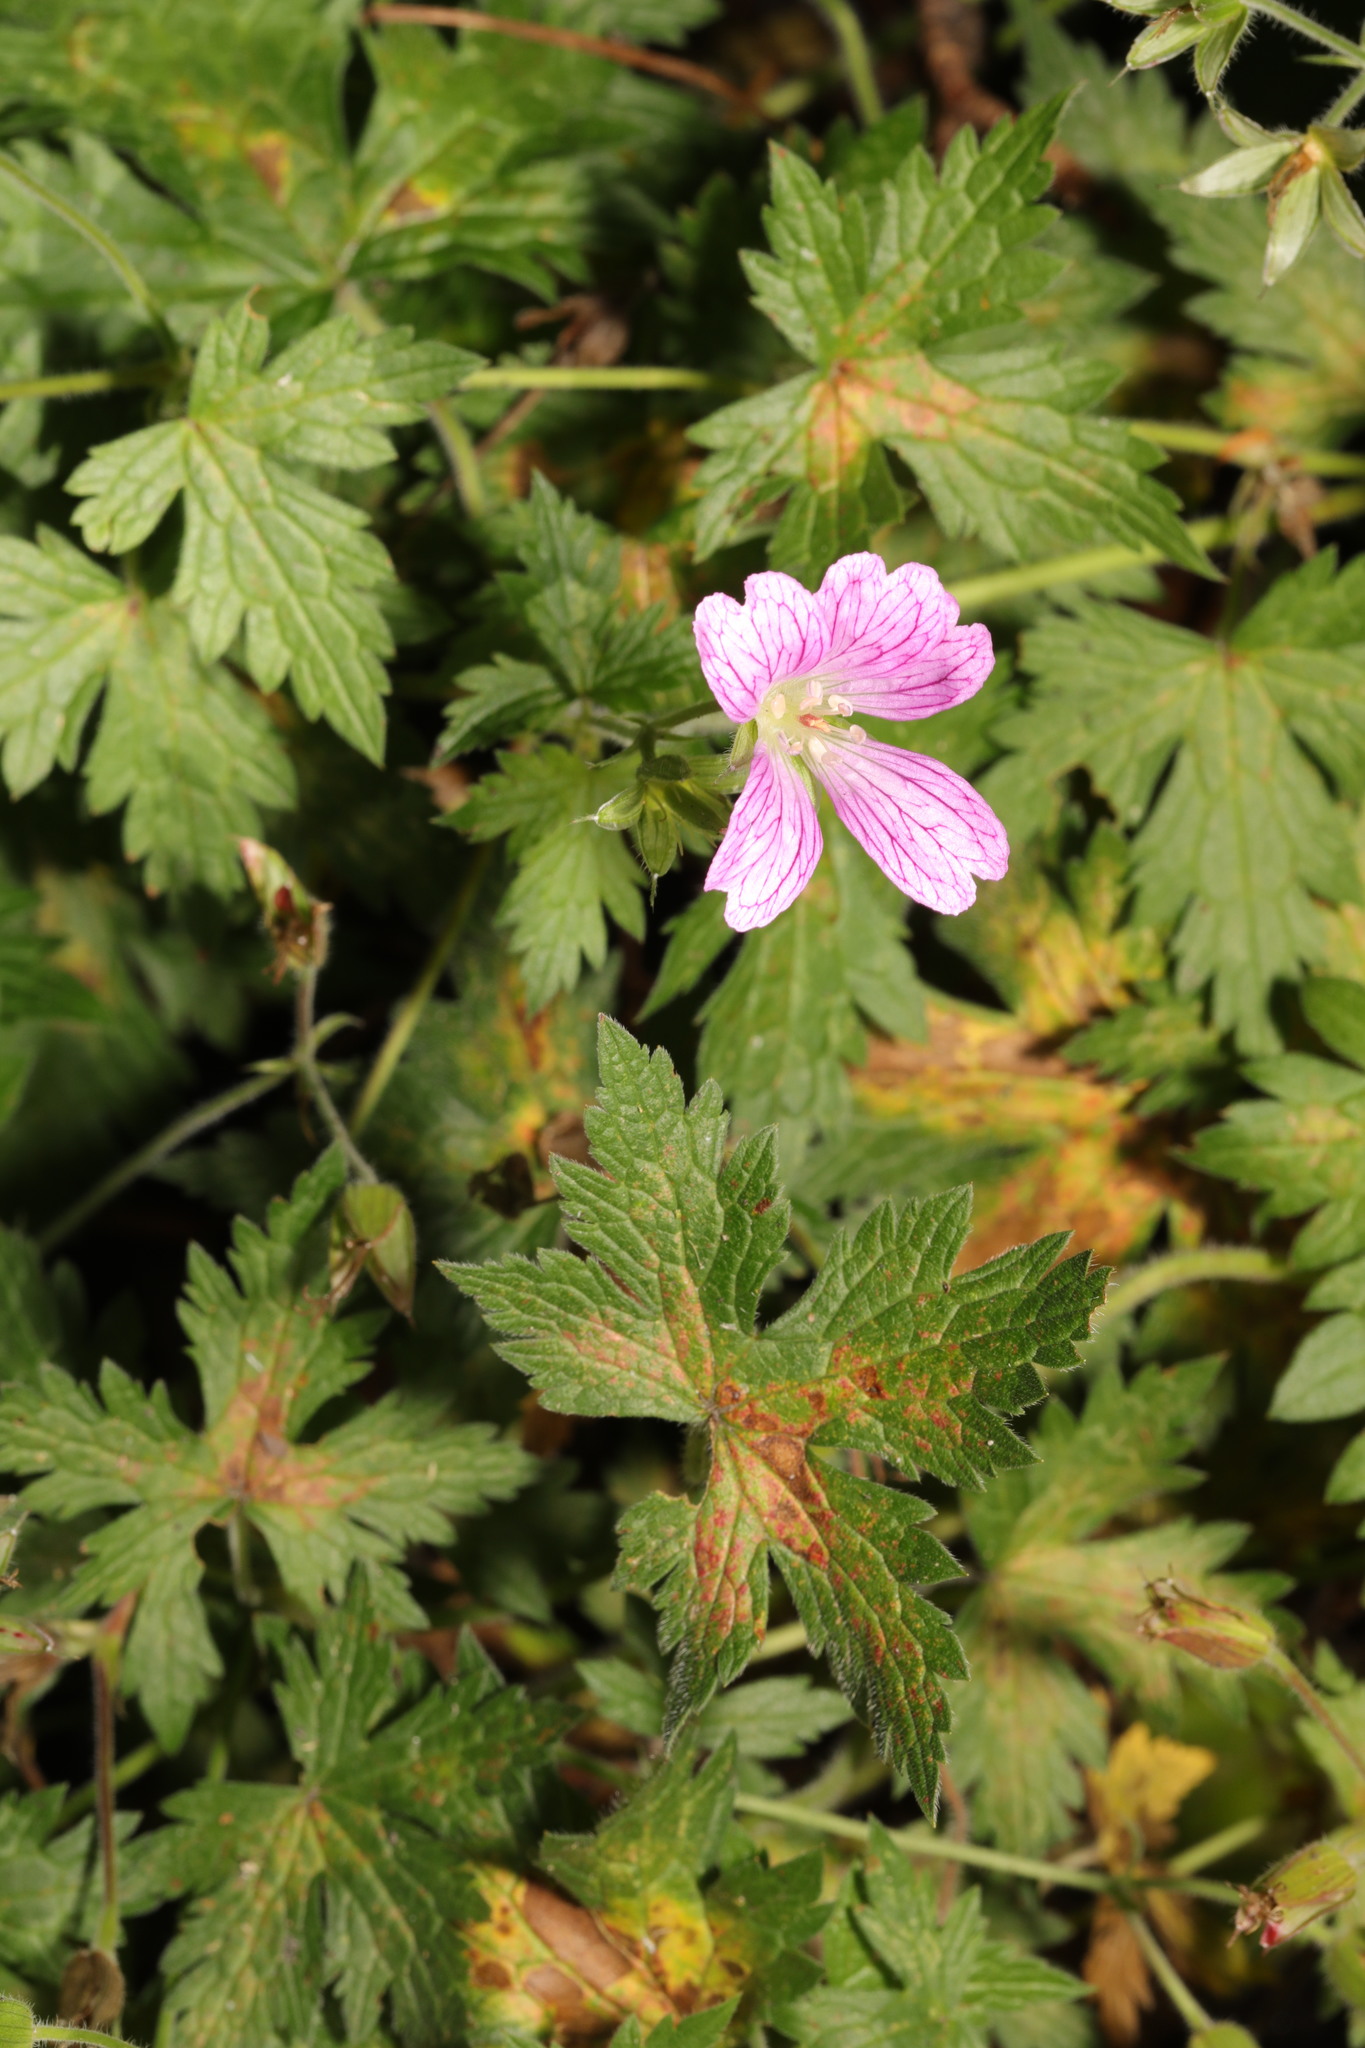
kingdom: Plantae
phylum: Tracheophyta
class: Magnoliopsida
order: Geraniales
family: Geraniaceae
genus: Geranium
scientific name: Geranium oxonianum
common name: Druce's crane's-bill
